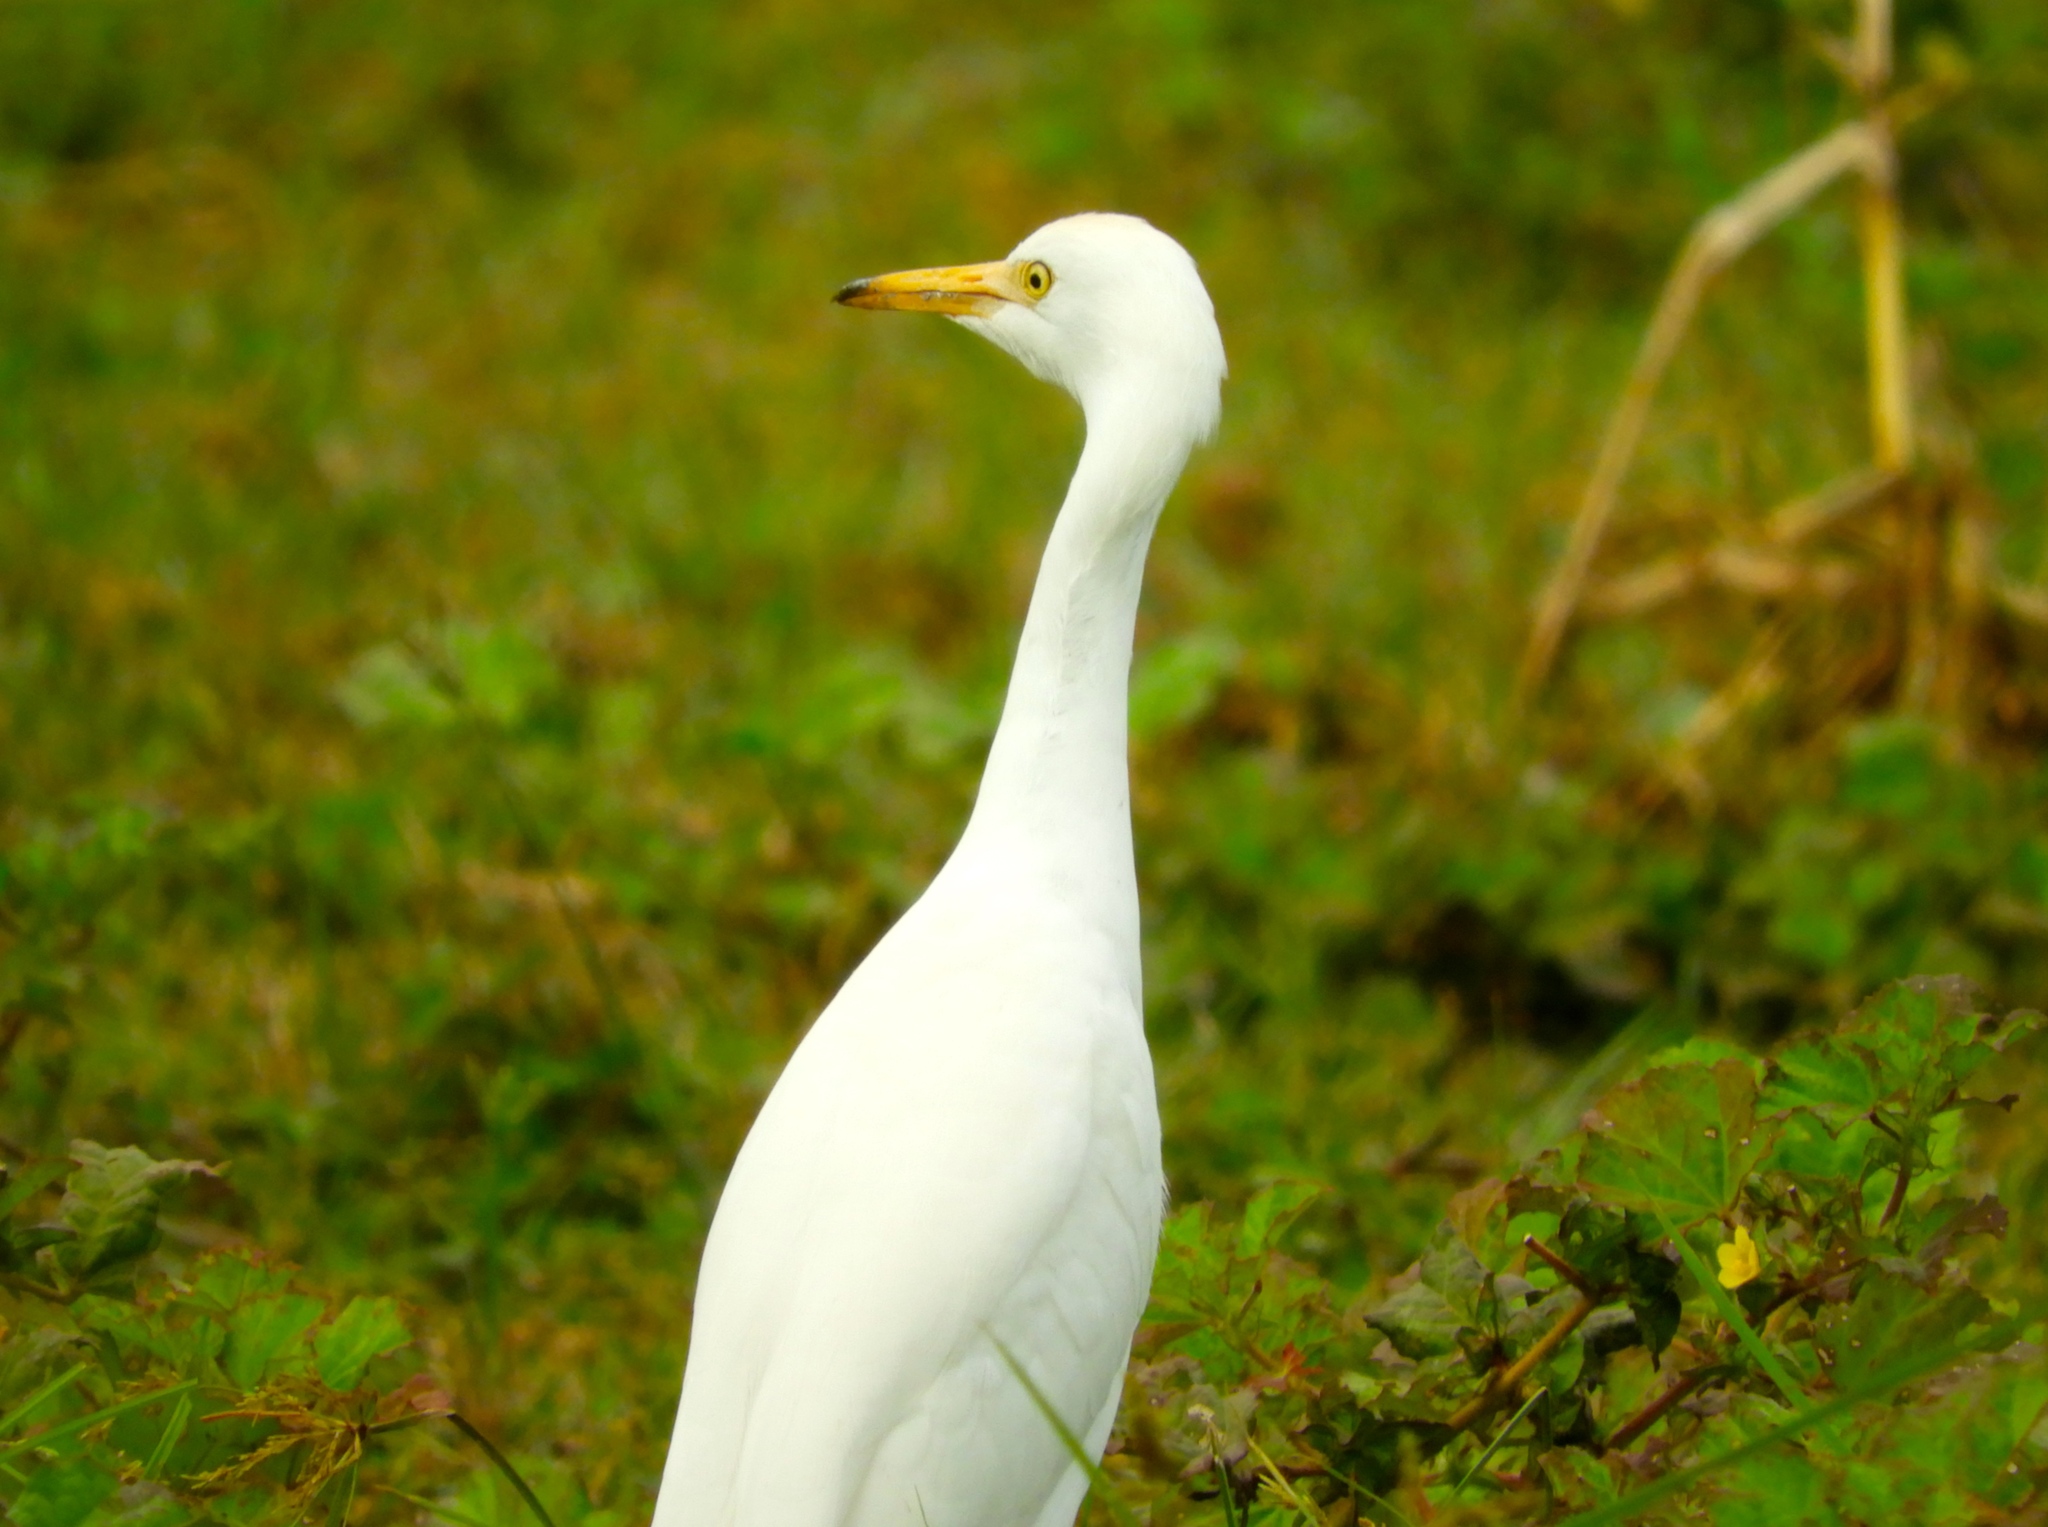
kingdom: Animalia
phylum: Chordata
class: Aves
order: Pelecaniformes
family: Ardeidae
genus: Bubulcus
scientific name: Bubulcus ibis
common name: Cattle egret
